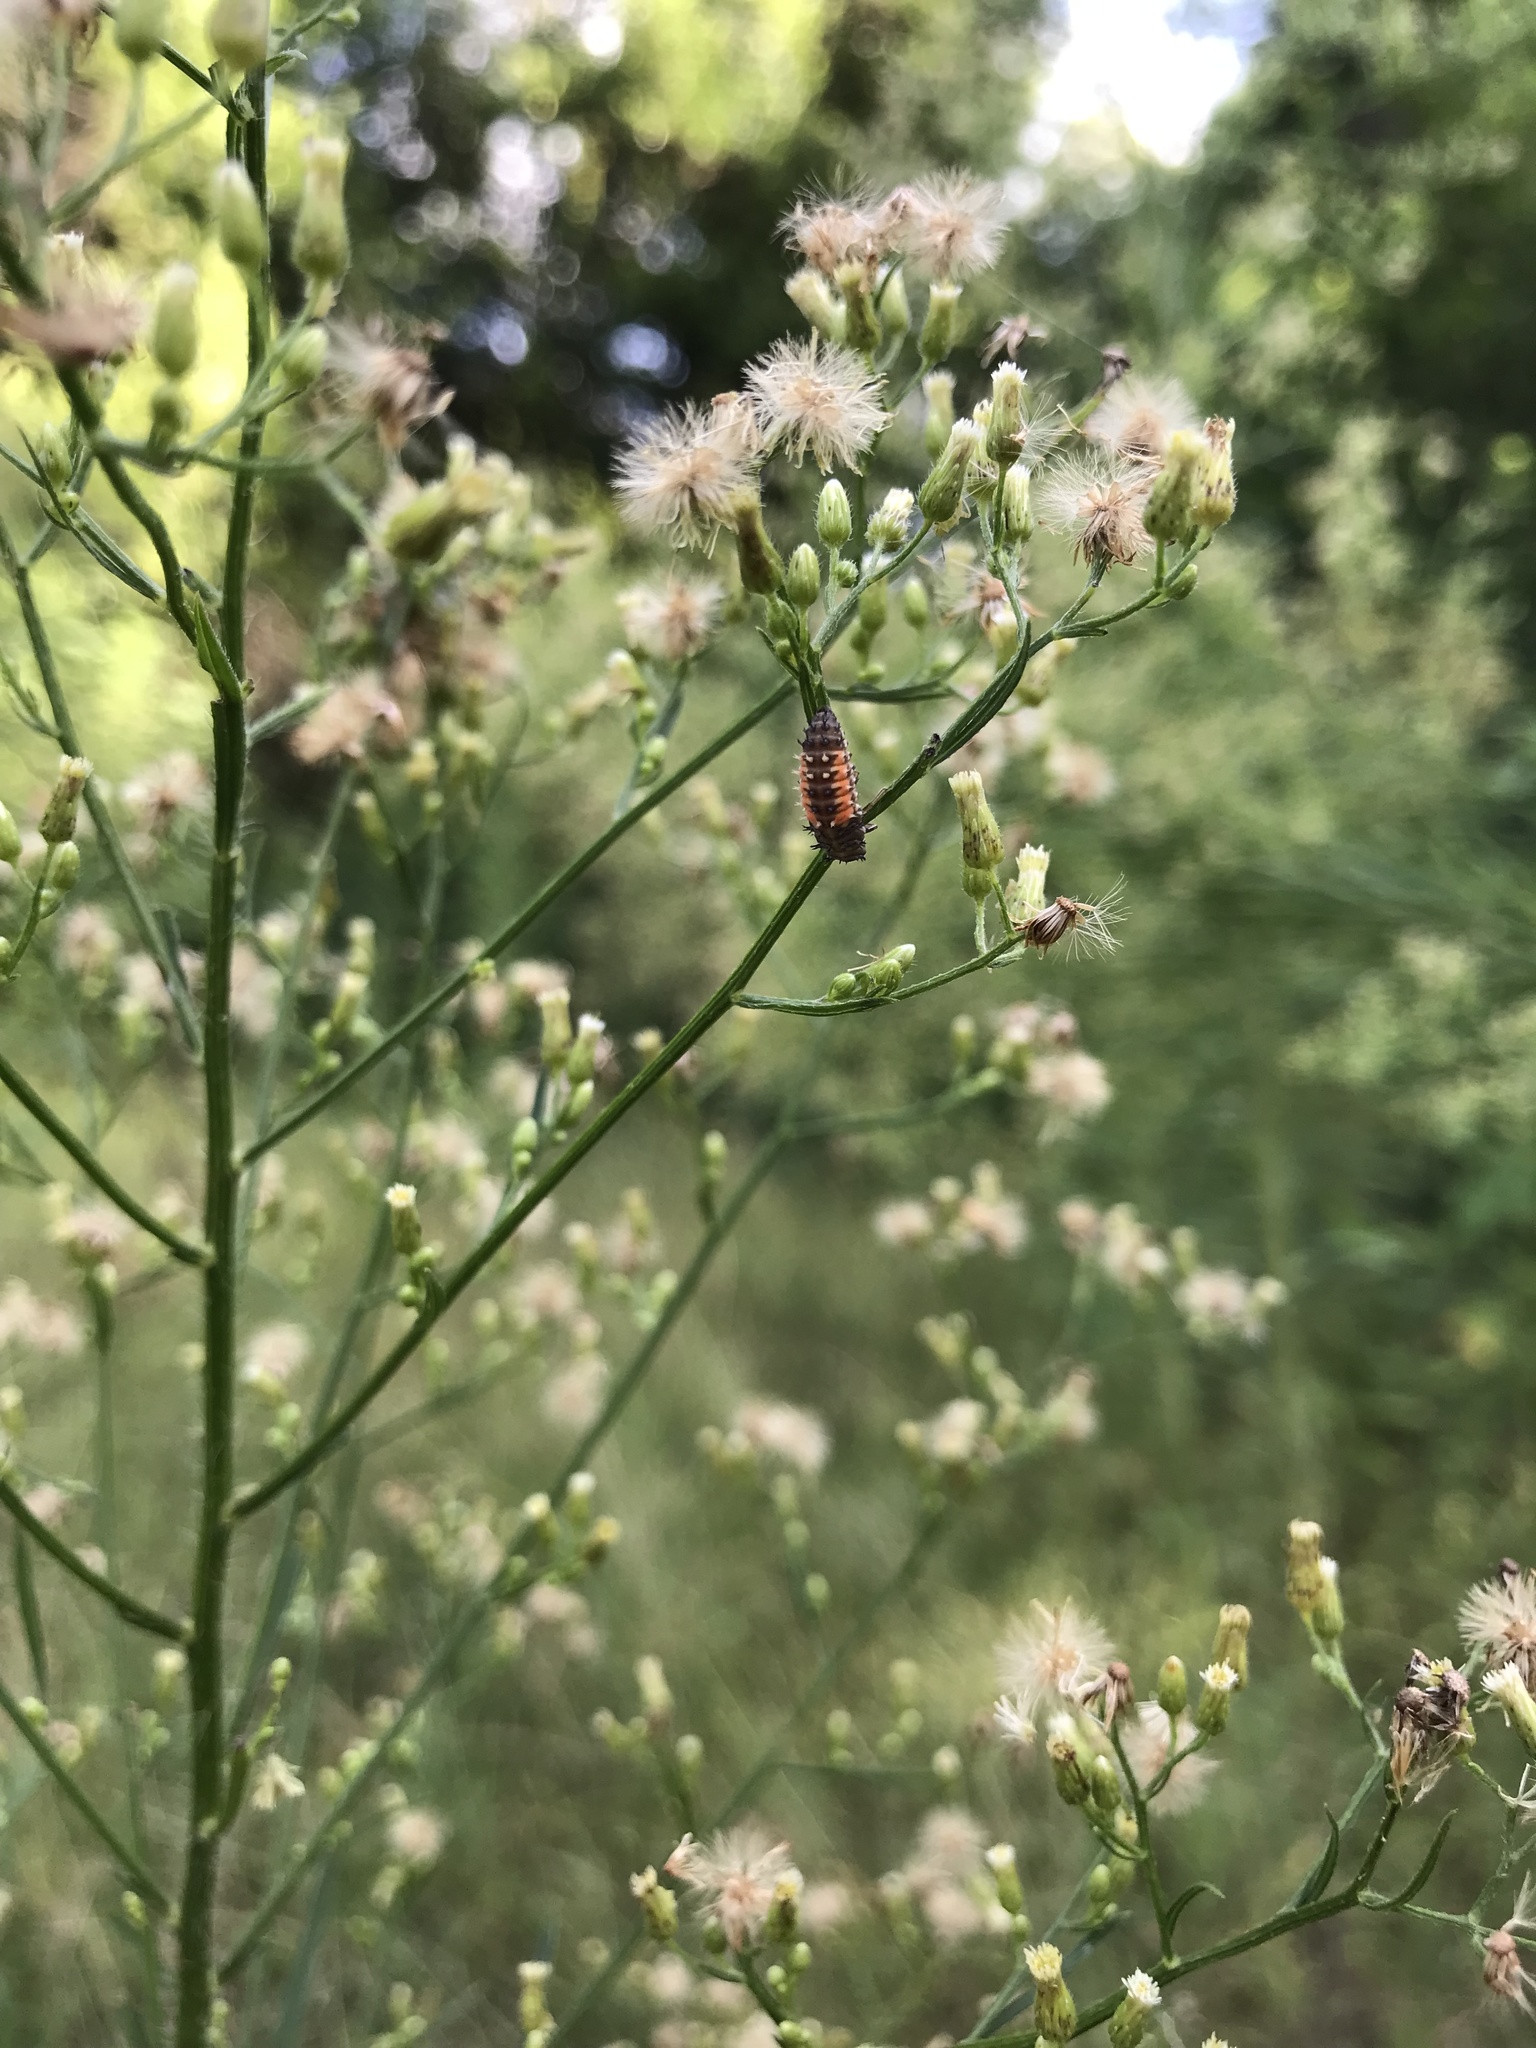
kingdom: Animalia
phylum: Arthropoda
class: Insecta
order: Coleoptera
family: Coccinellidae
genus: Harmonia
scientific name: Harmonia axyridis
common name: Harlequin ladybird
